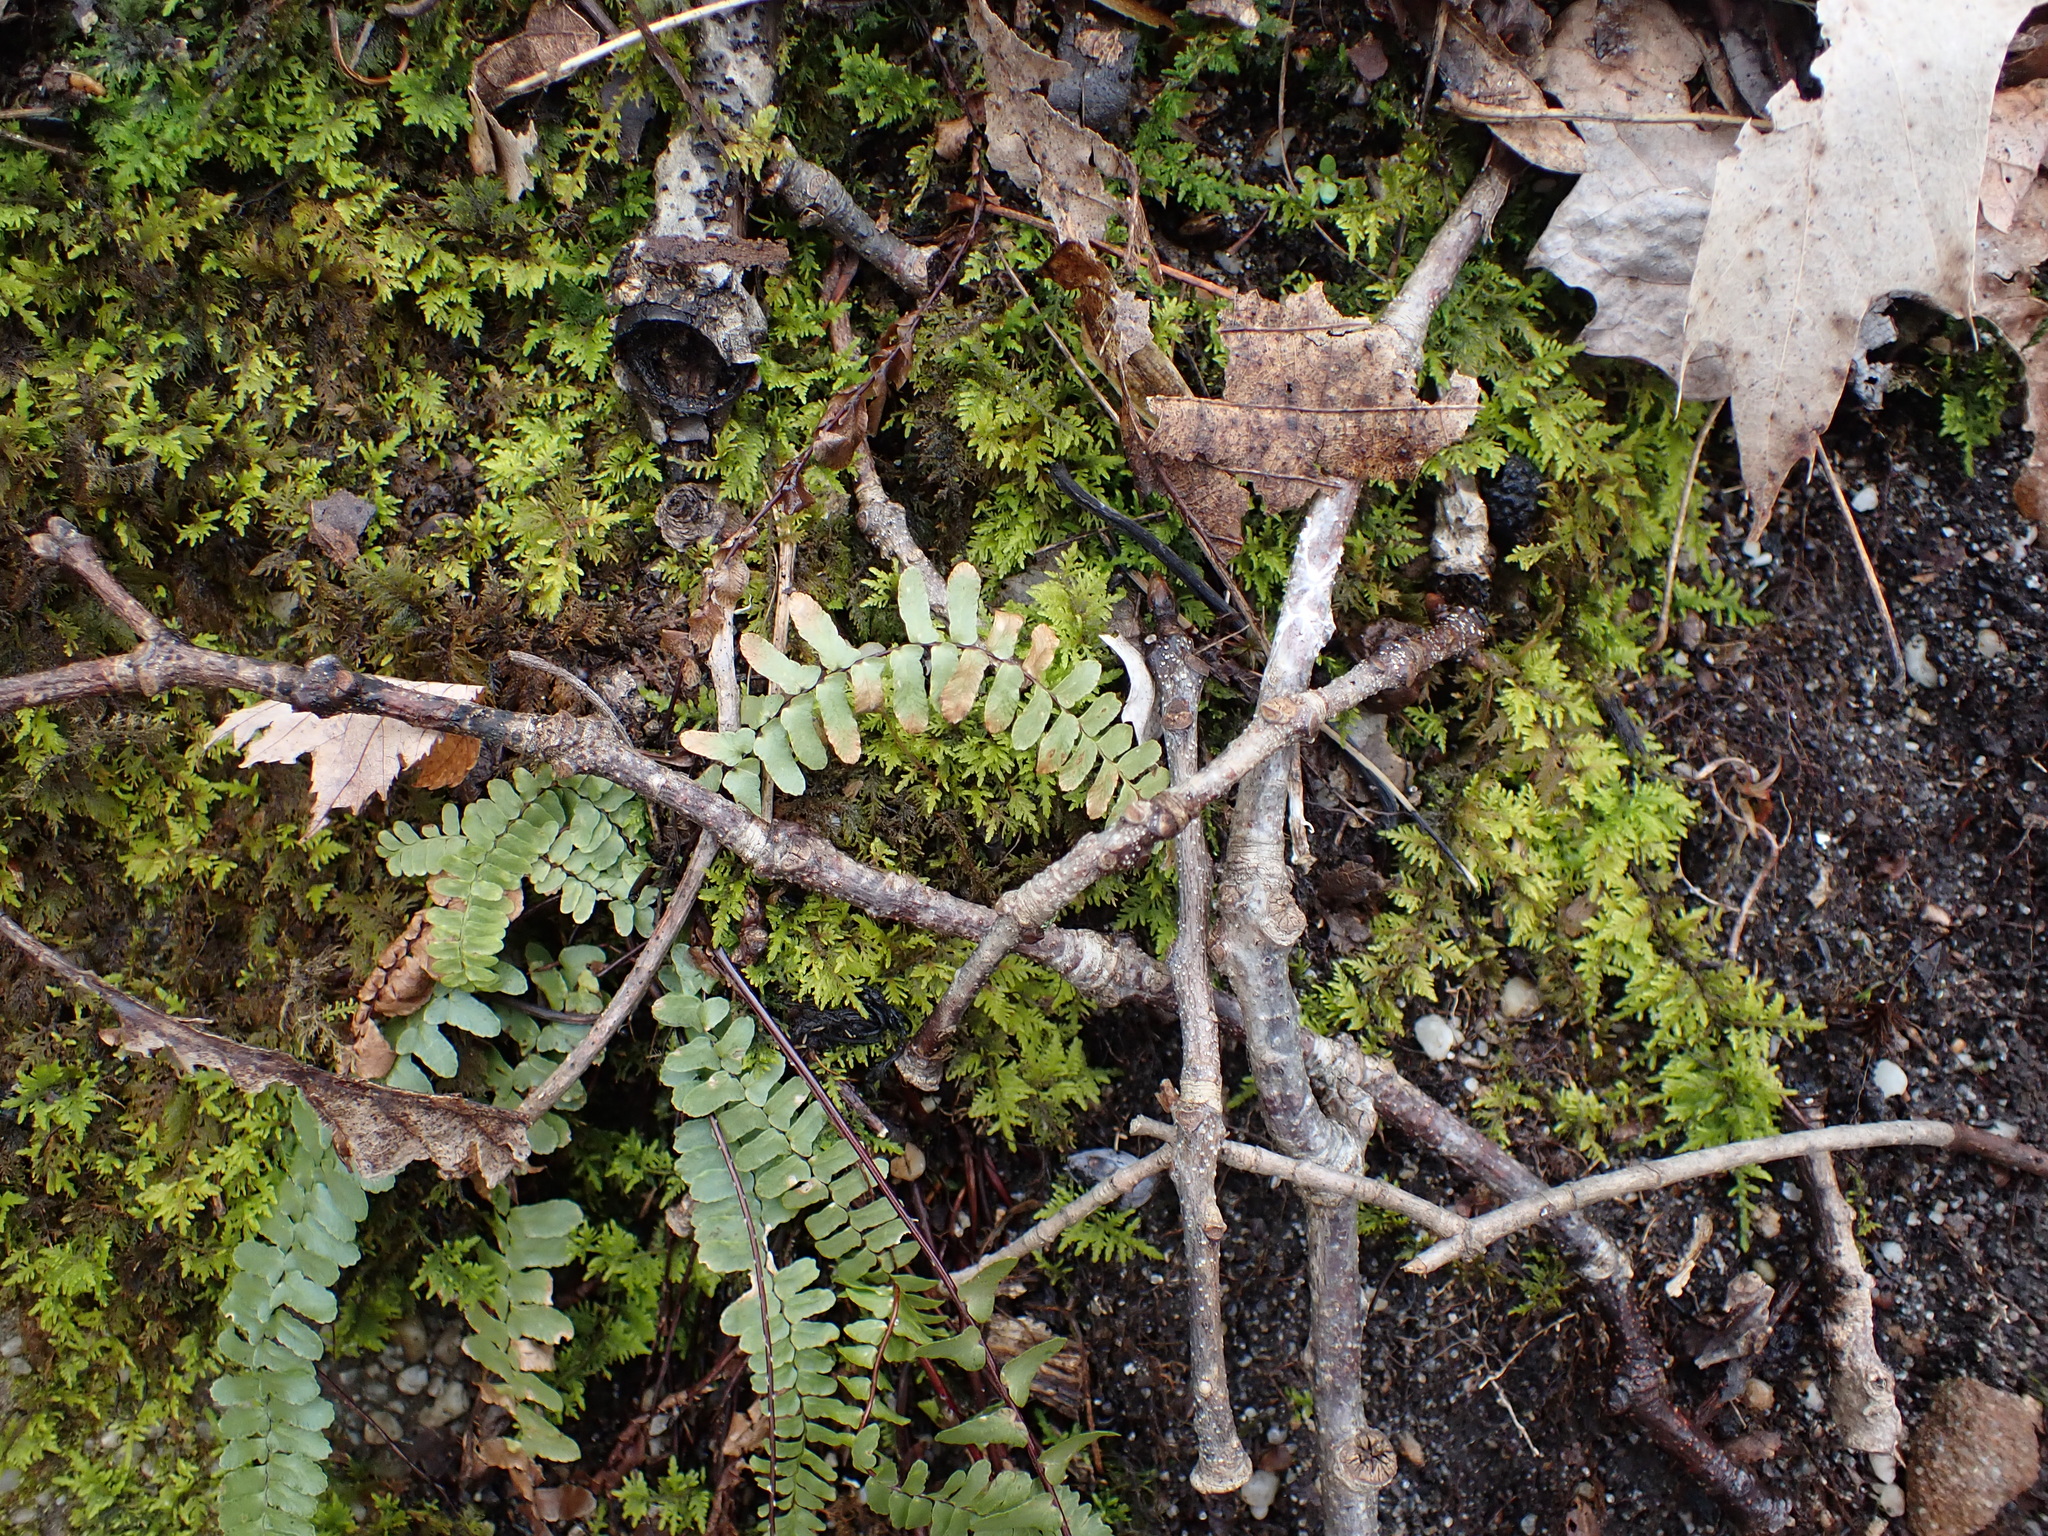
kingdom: Plantae
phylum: Tracheophyta
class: Polypodiopsida
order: Polypodiales
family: Aspleniaceae
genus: Asplenium
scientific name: Asplenium platyneuron
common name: Ebony spleenwort
